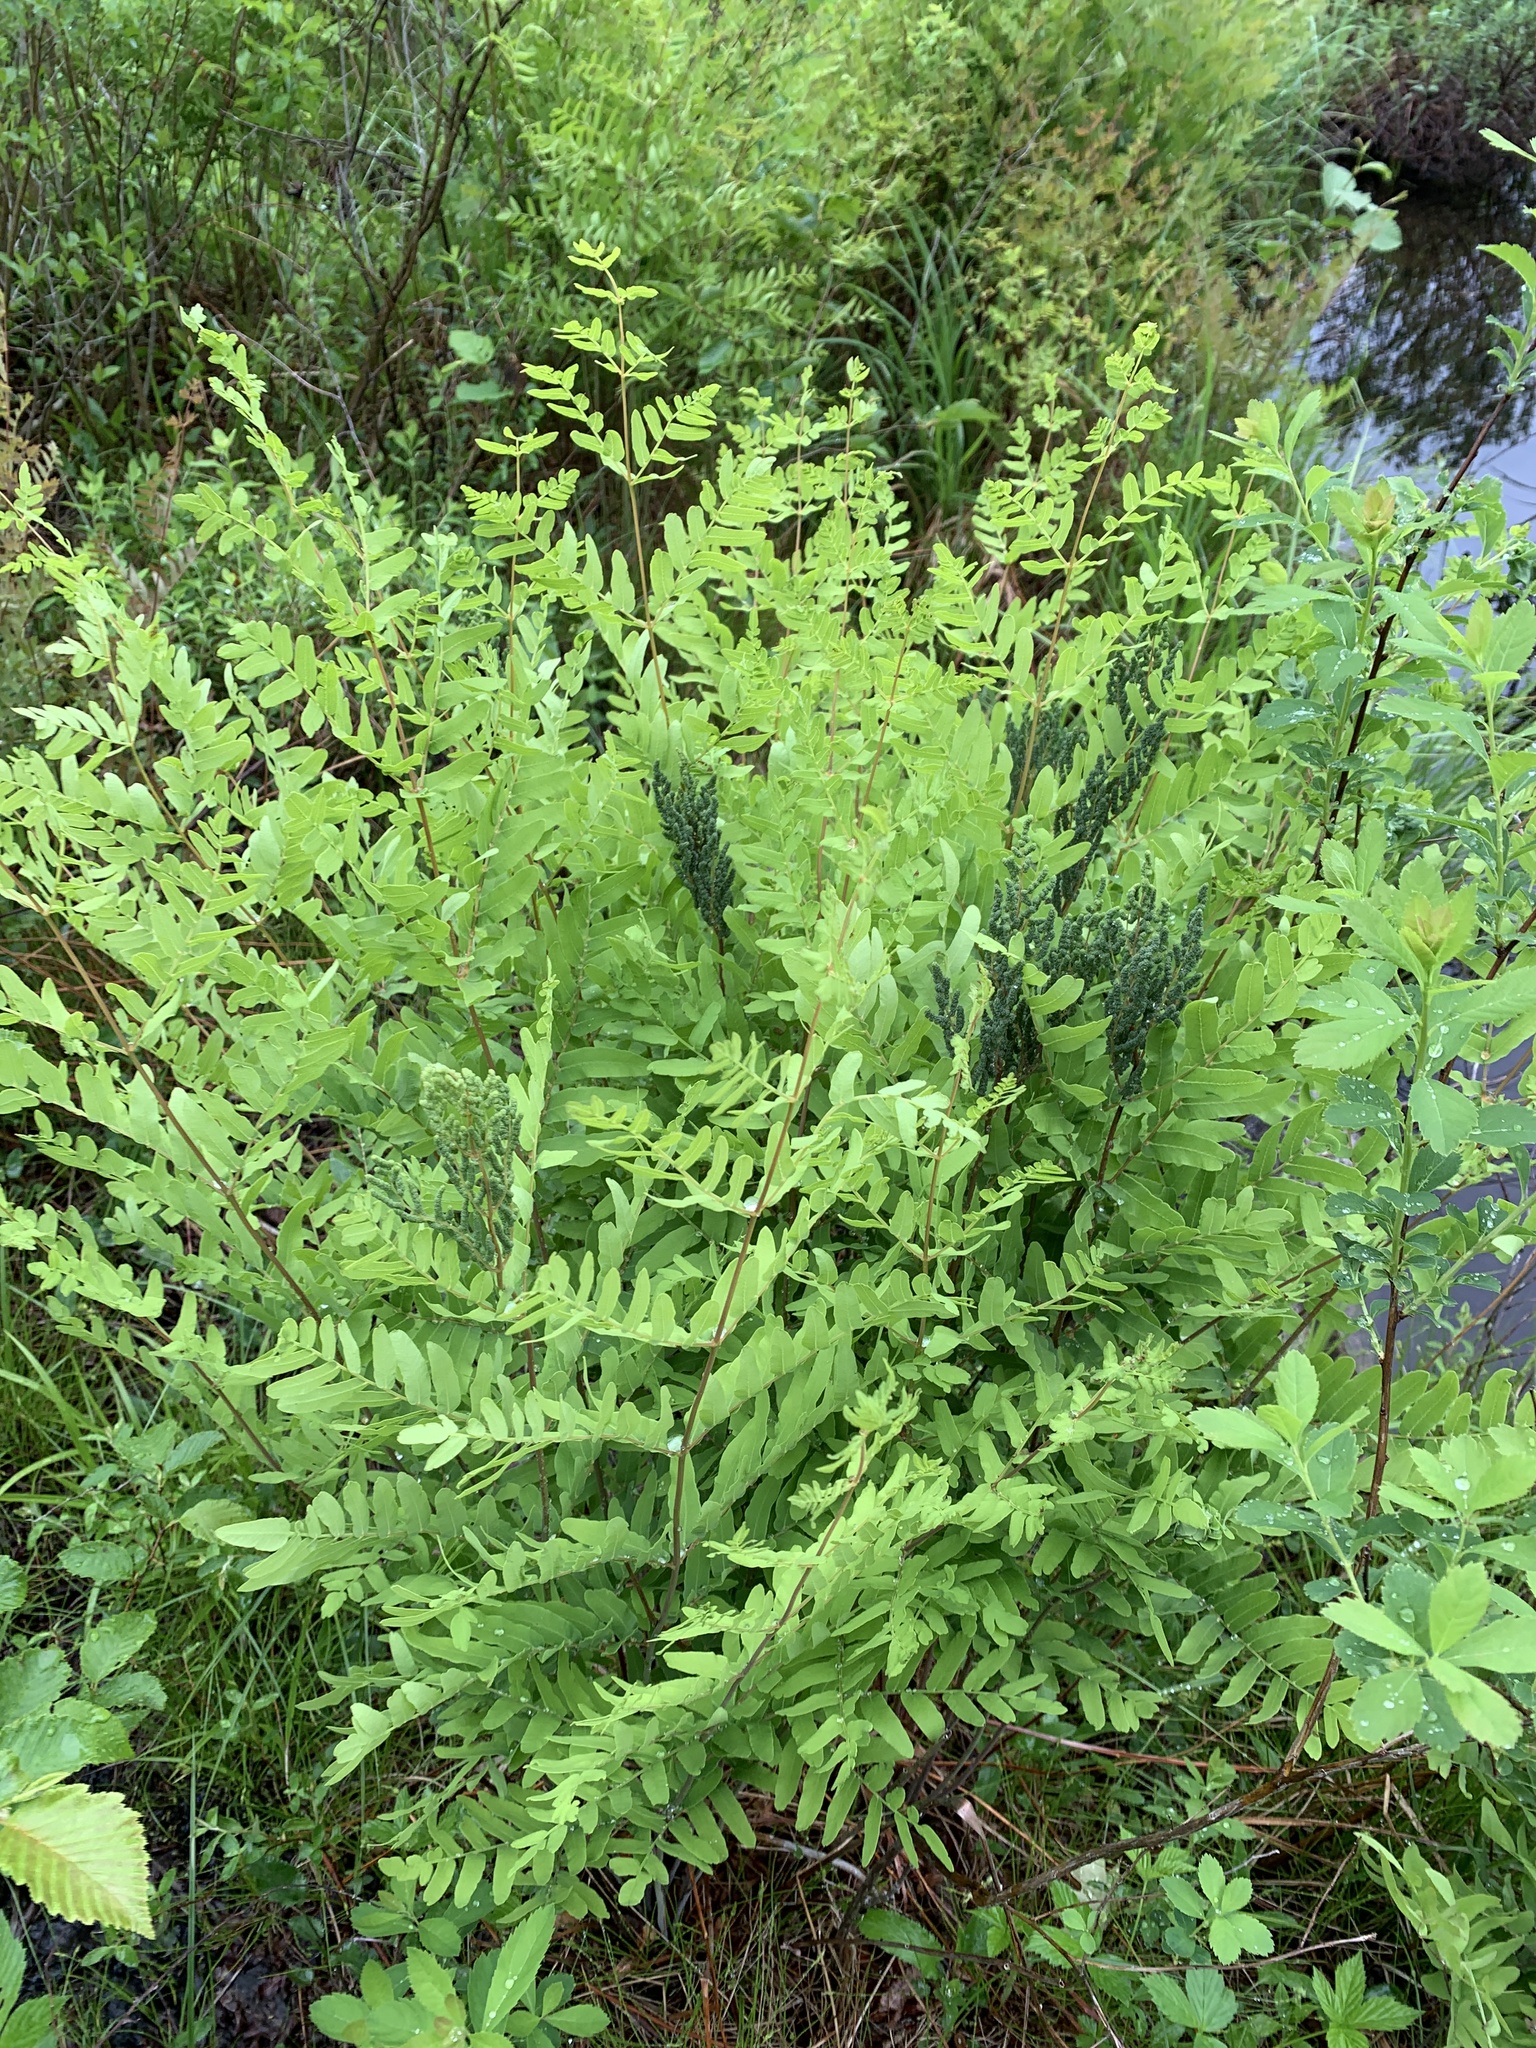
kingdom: Plantae
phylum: Tracheophyta
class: Polypodiopsida
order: Osmundales
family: Osmundaceae
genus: Osmunda
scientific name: Osmunda spectabilis
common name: American royal fern
